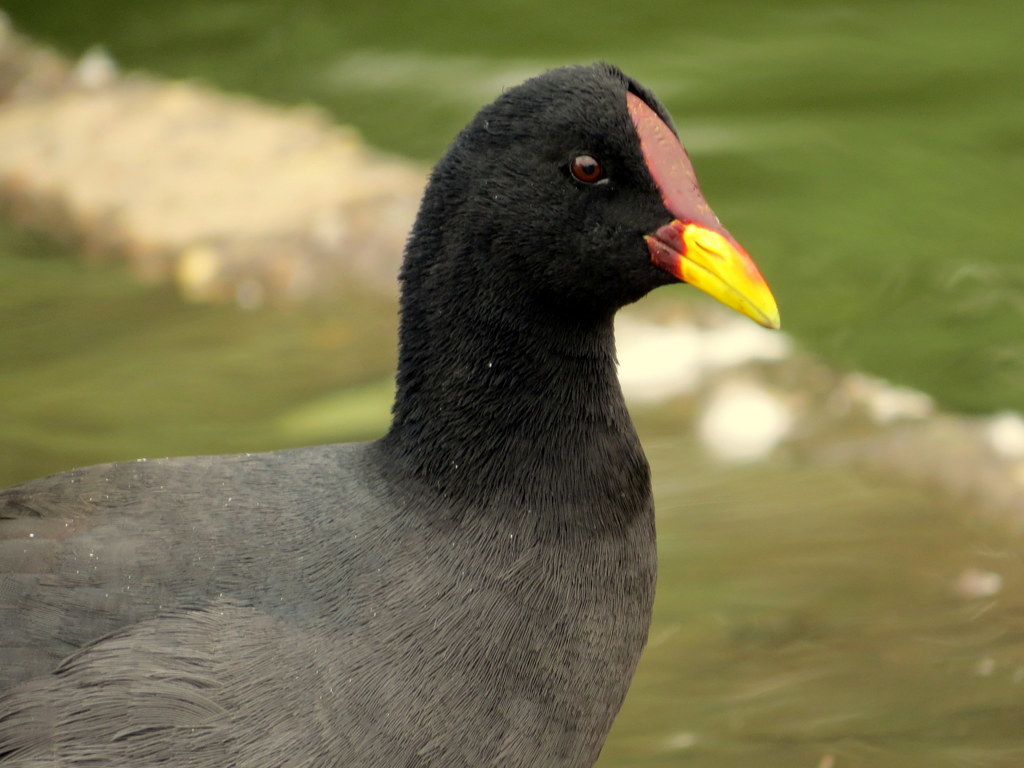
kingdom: Animalia
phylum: Chordata
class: Aves
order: Gruiformes
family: Rallidae
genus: Fulica
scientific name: Fulica rufifrons
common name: Red-fronted coot
